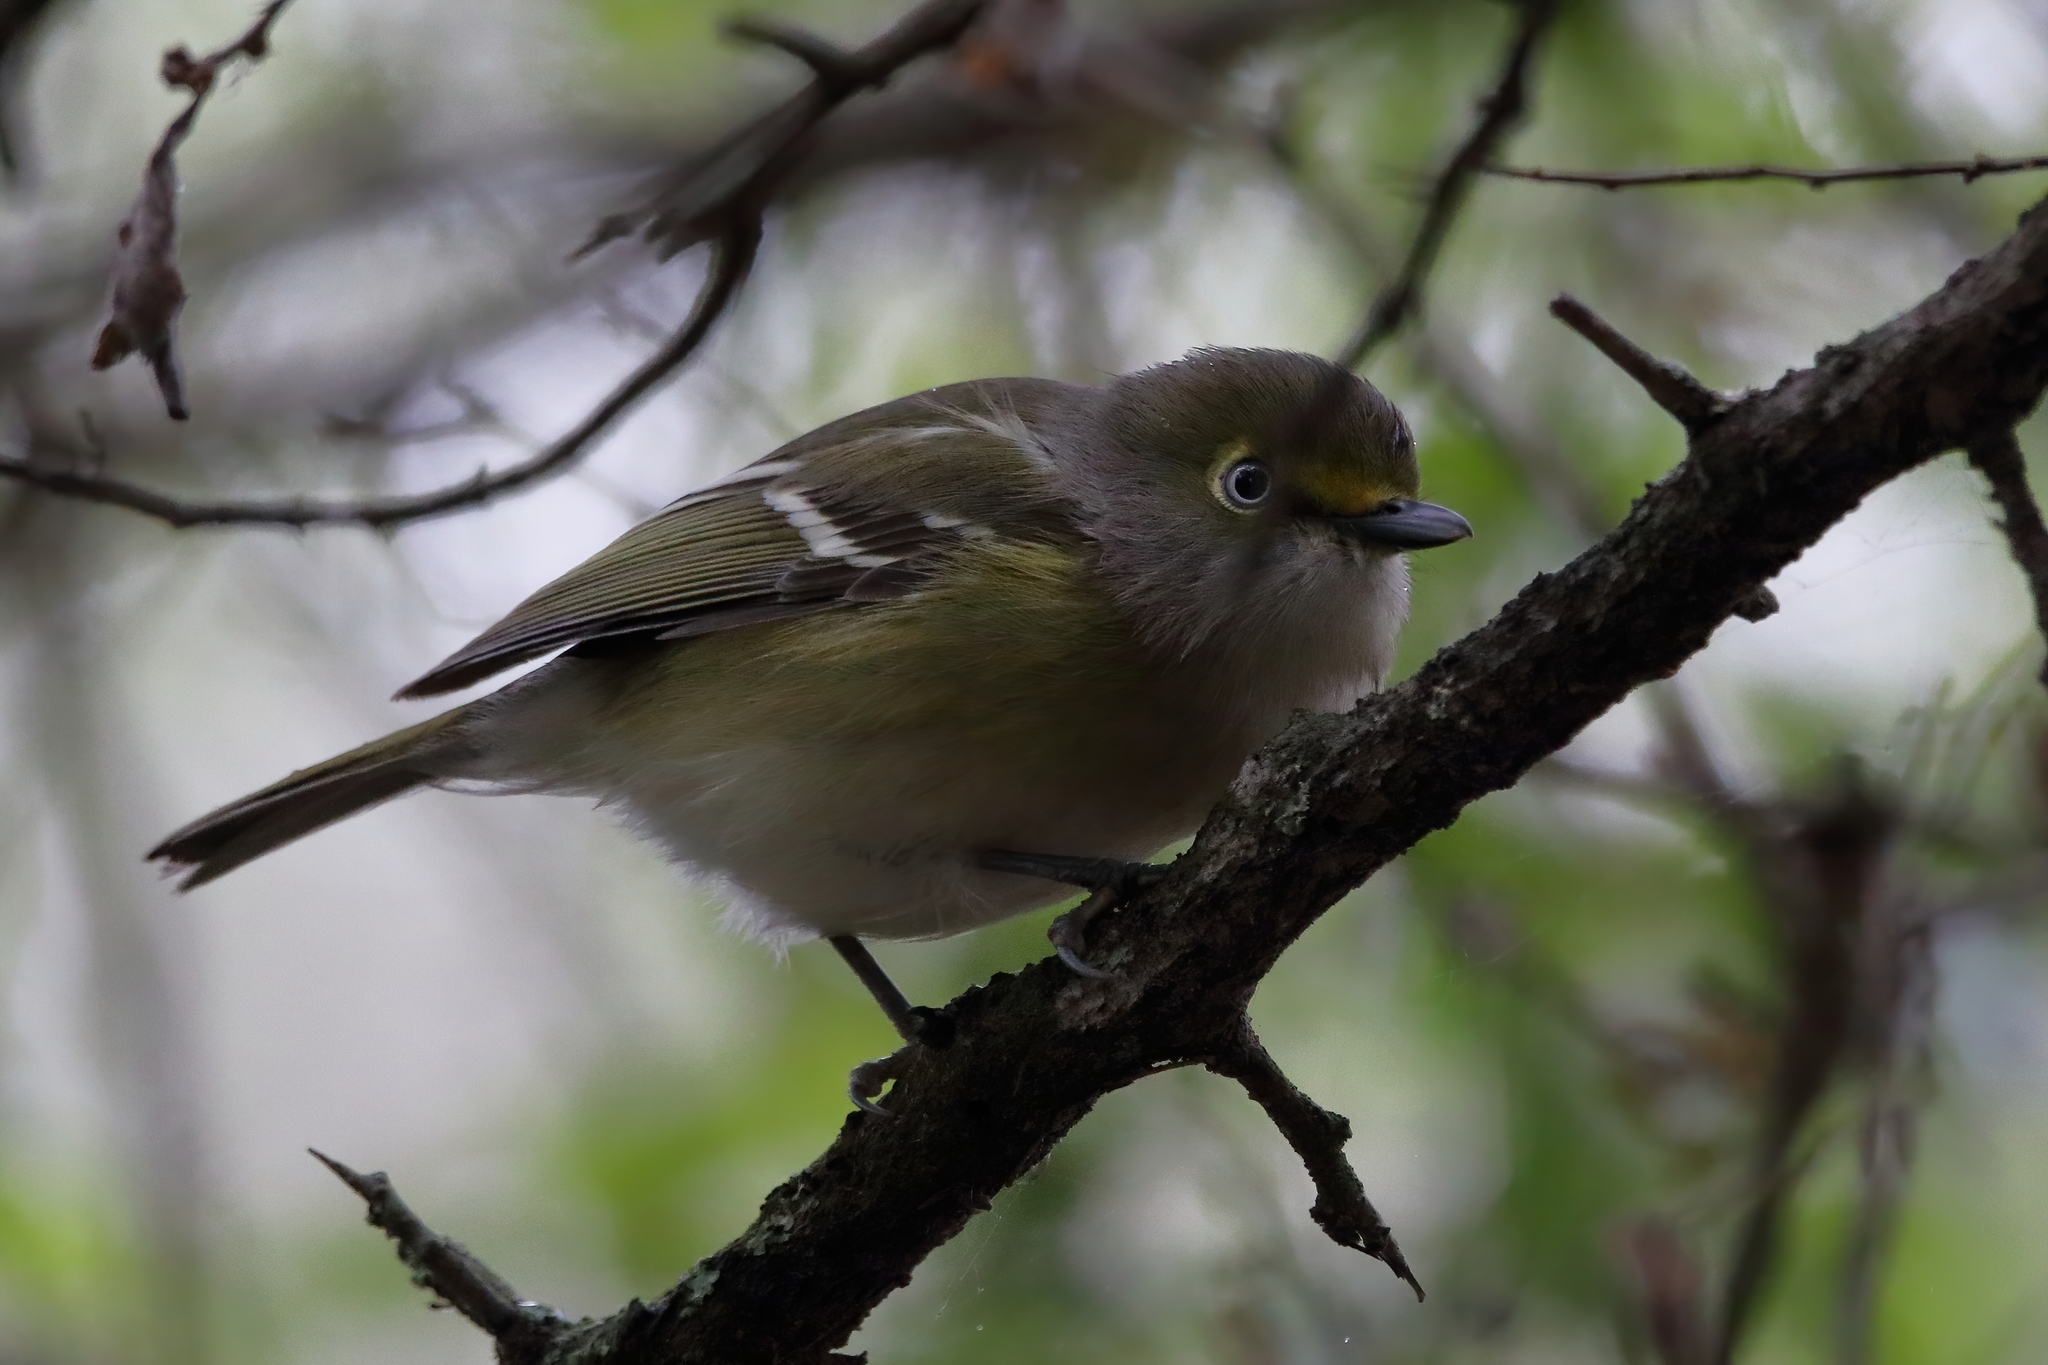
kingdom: Animalia
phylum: Chordata
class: Aves
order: Passeriformes
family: Vireonidae
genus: Vireo
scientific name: Vireo griseus
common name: White-eyed vireo
